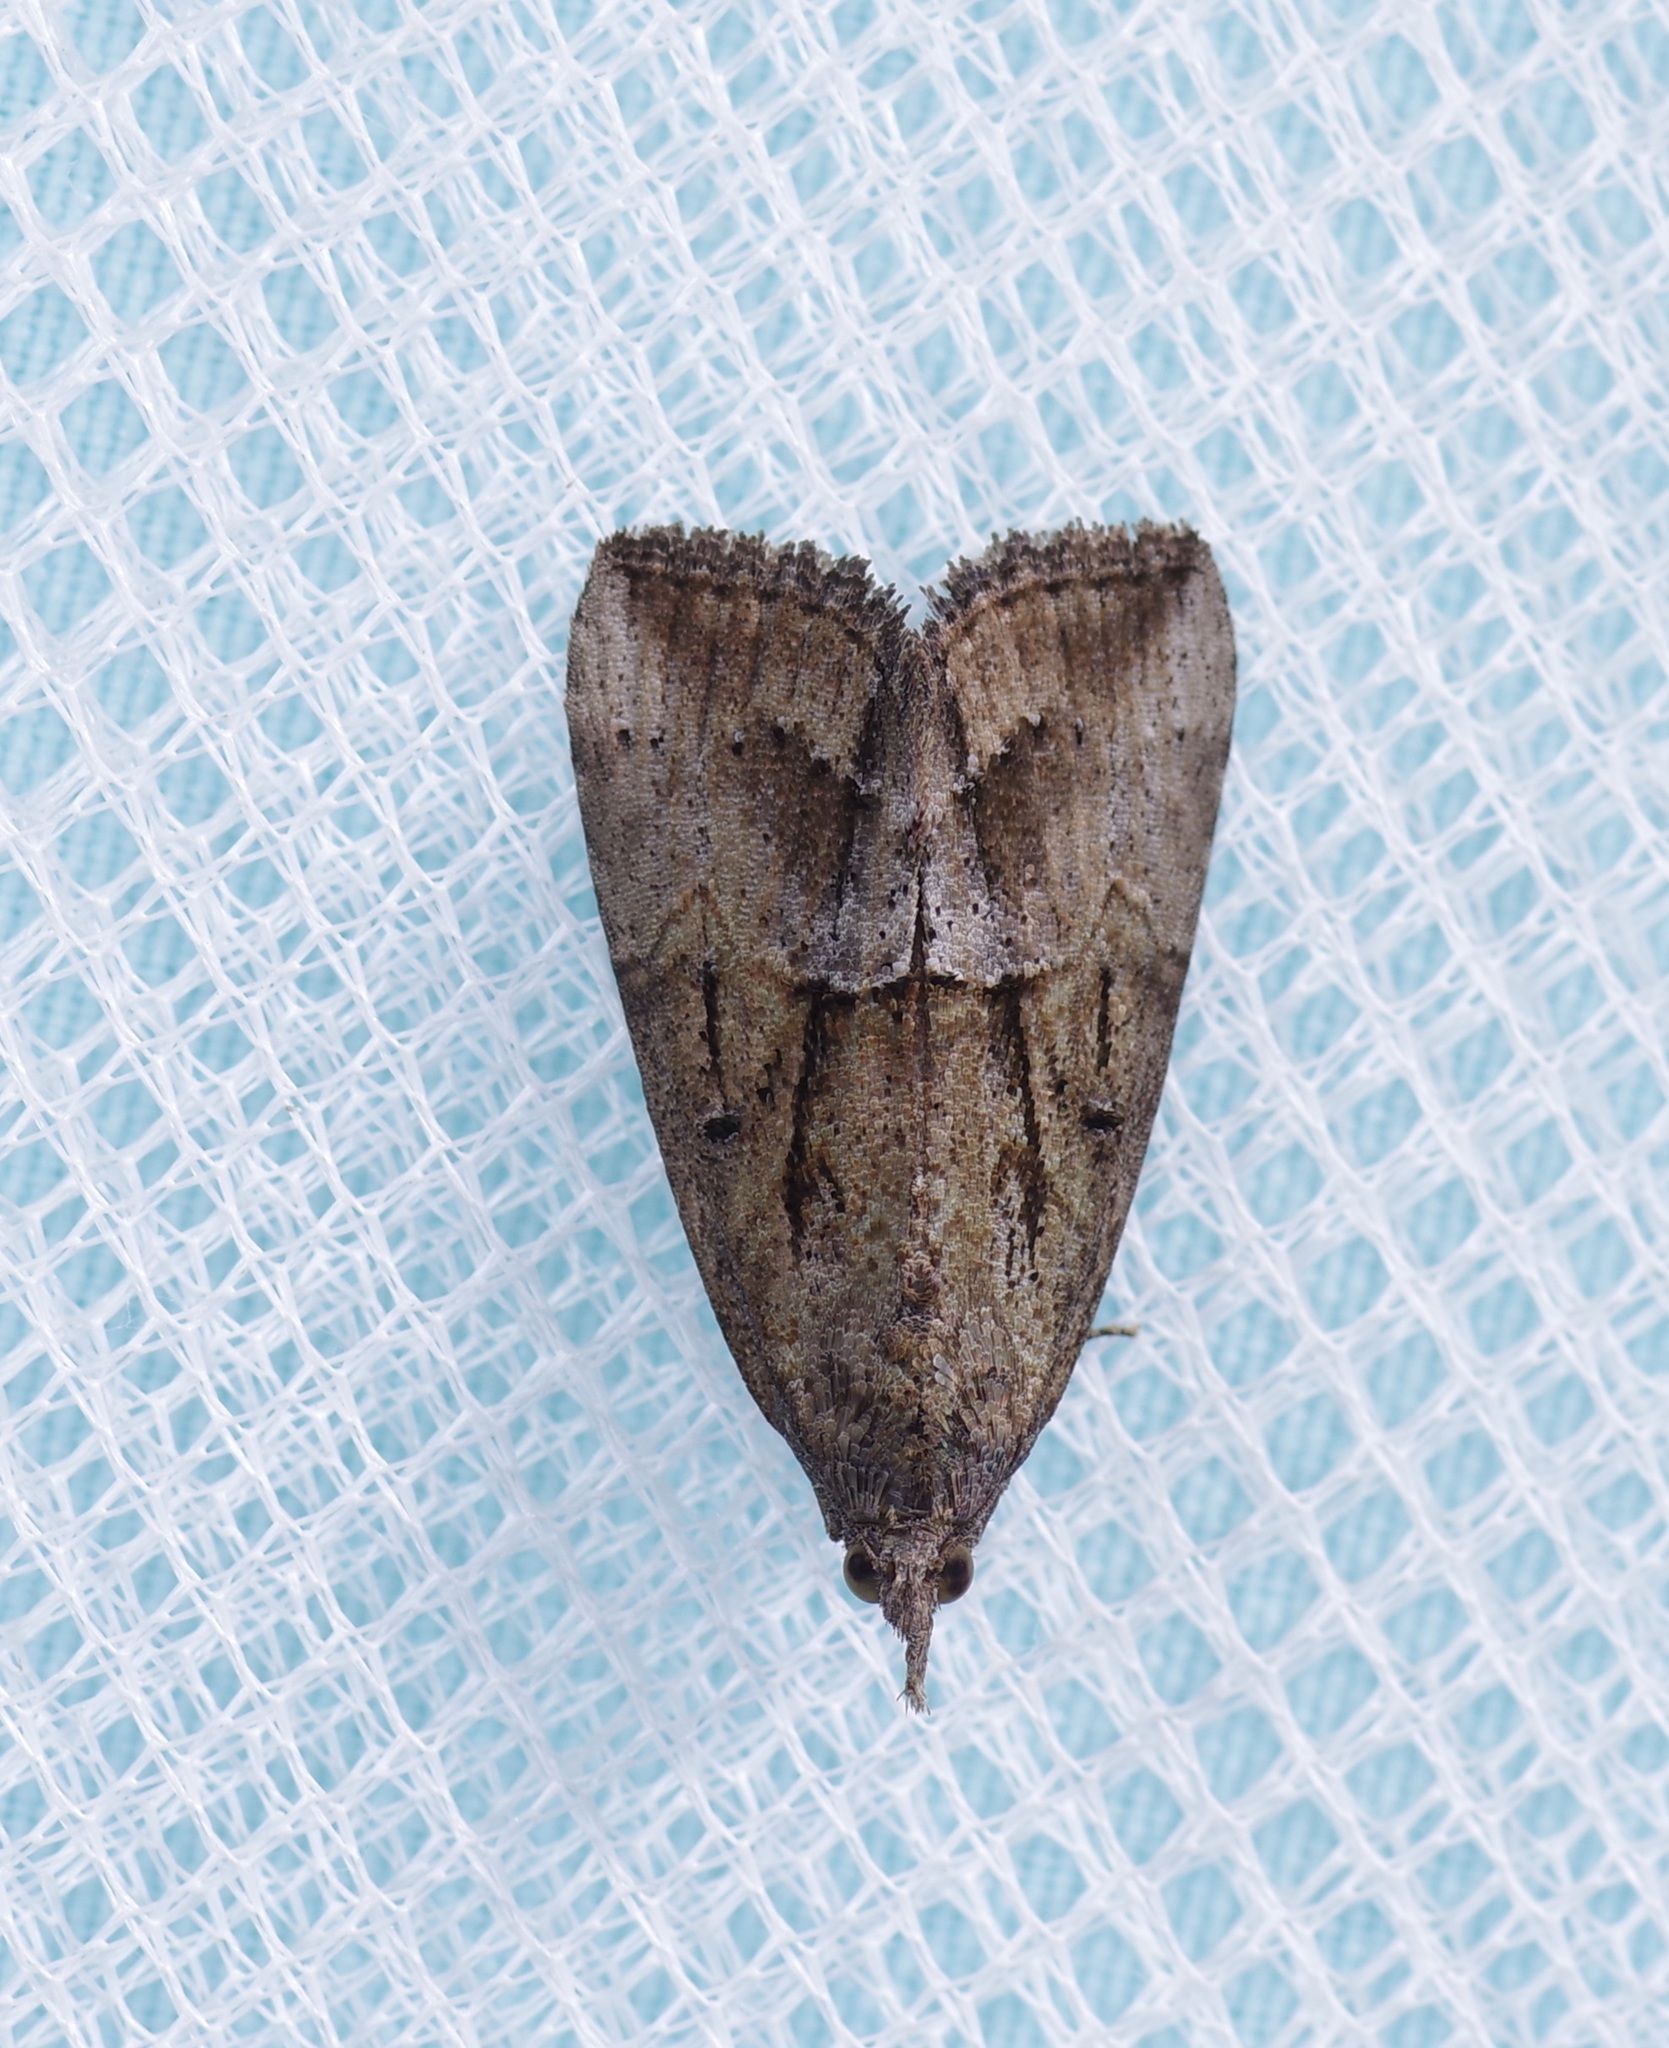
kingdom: Animalia
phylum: Arthropoda
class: Insecta
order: Lepidoptera
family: Erebidae
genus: Hypena
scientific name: Hypena scabra
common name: Green cloverworm
